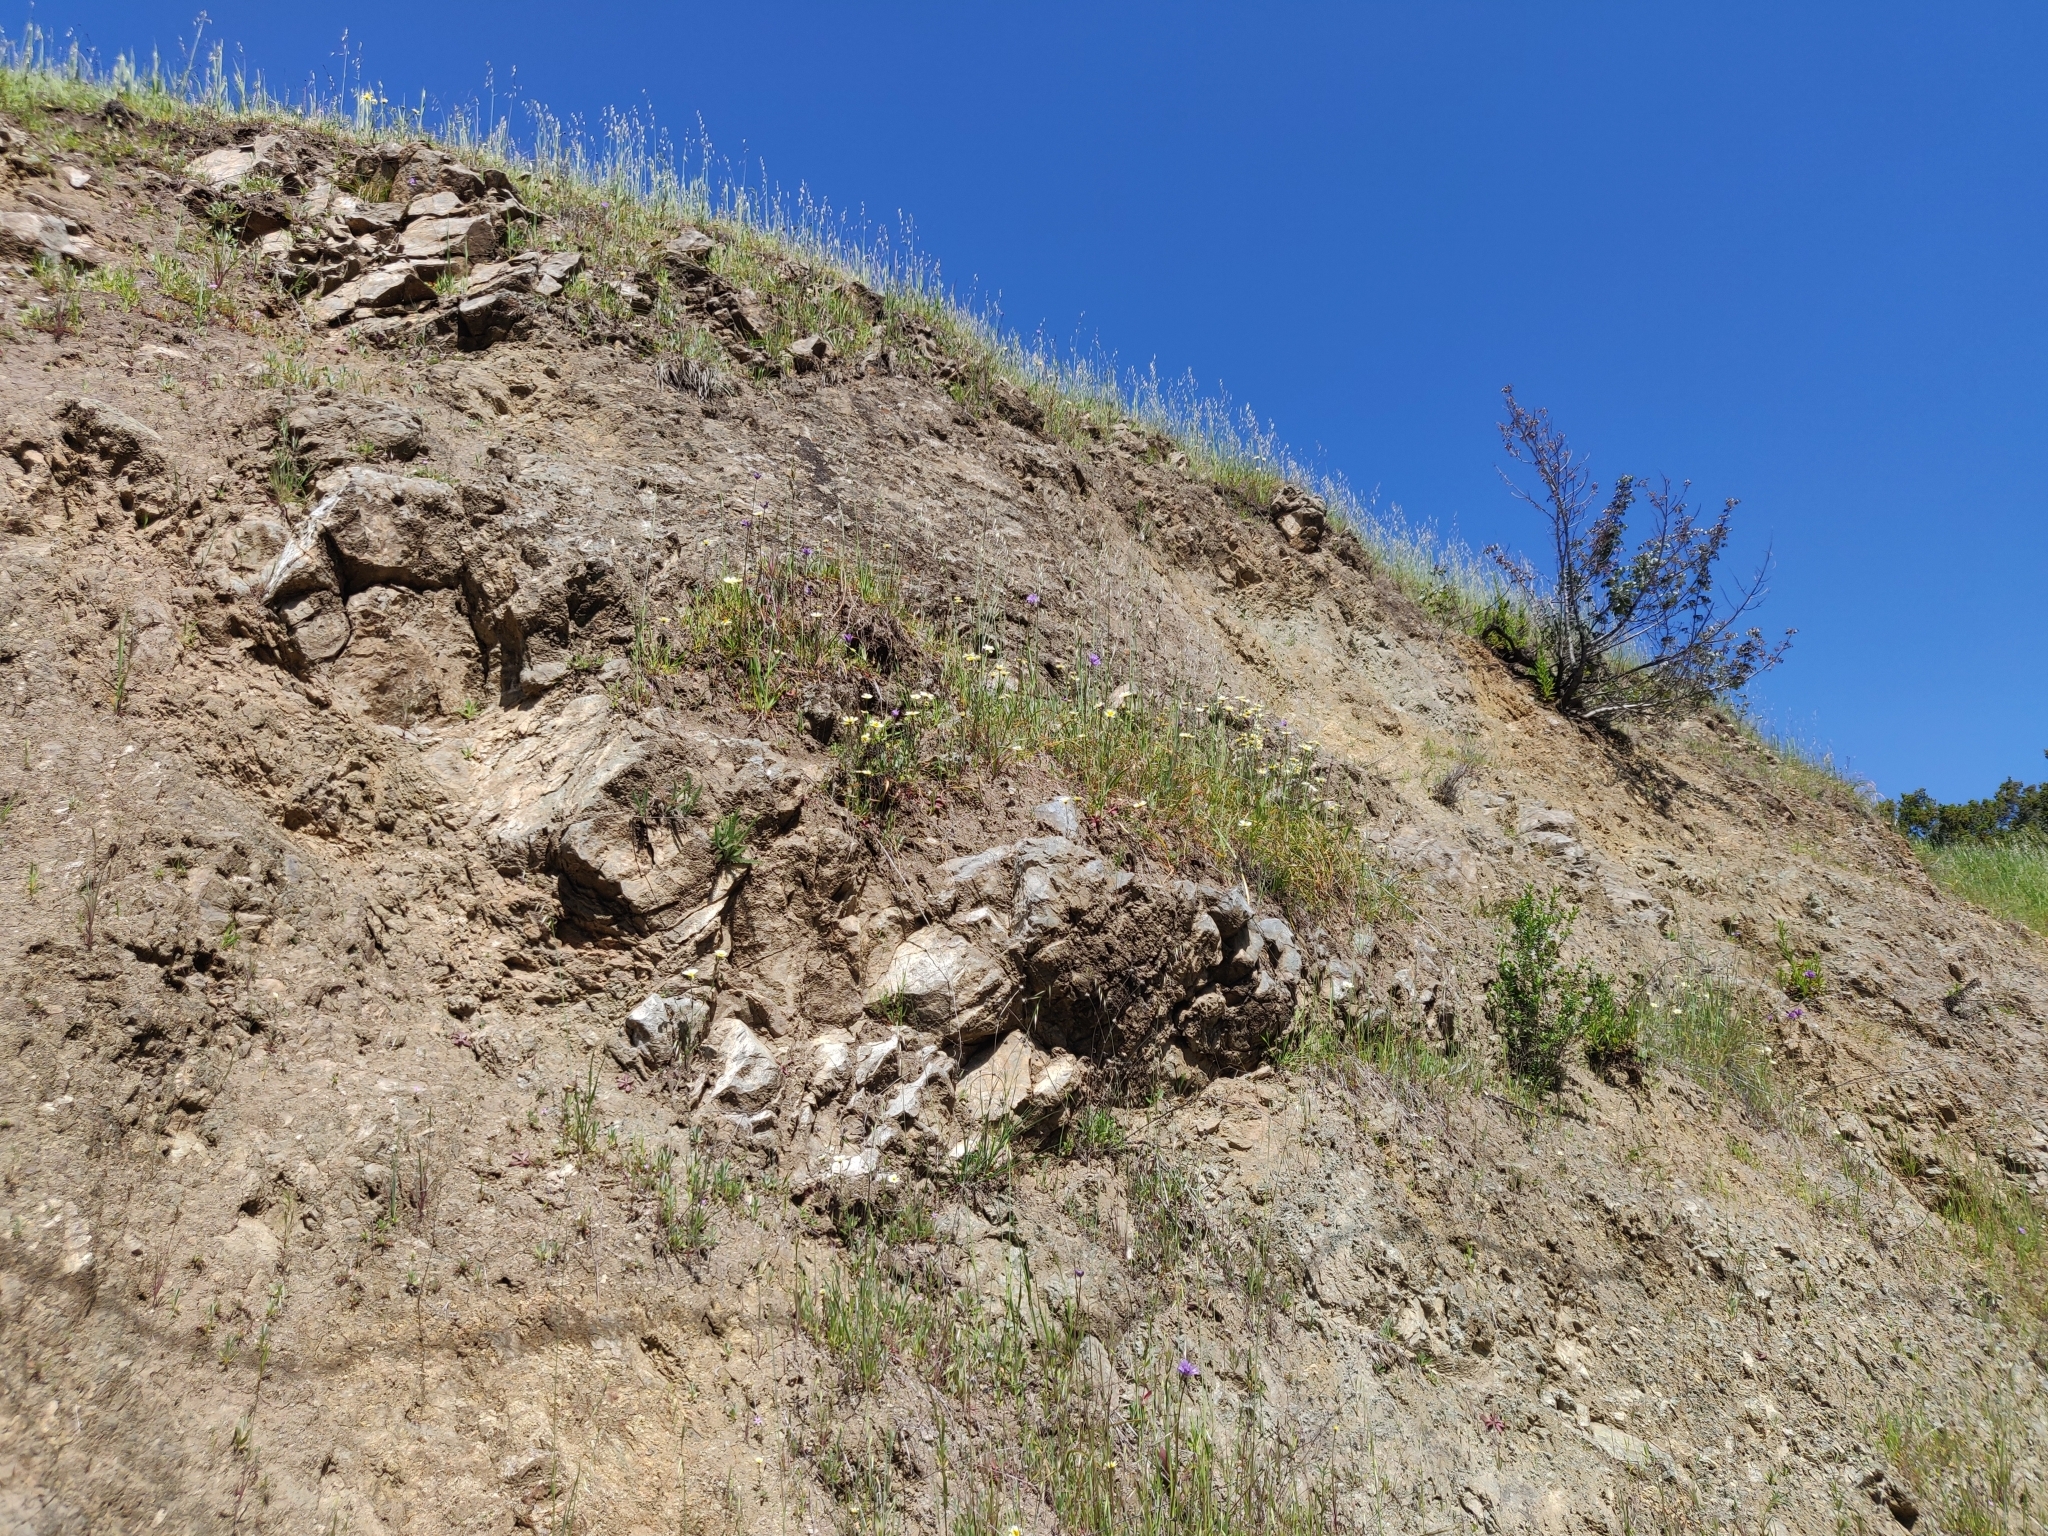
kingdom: Plantae
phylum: Tracheophyta
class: Magnoliopsida
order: Asterales
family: Asteraceae
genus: Layia
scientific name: Layia gaillardioides
